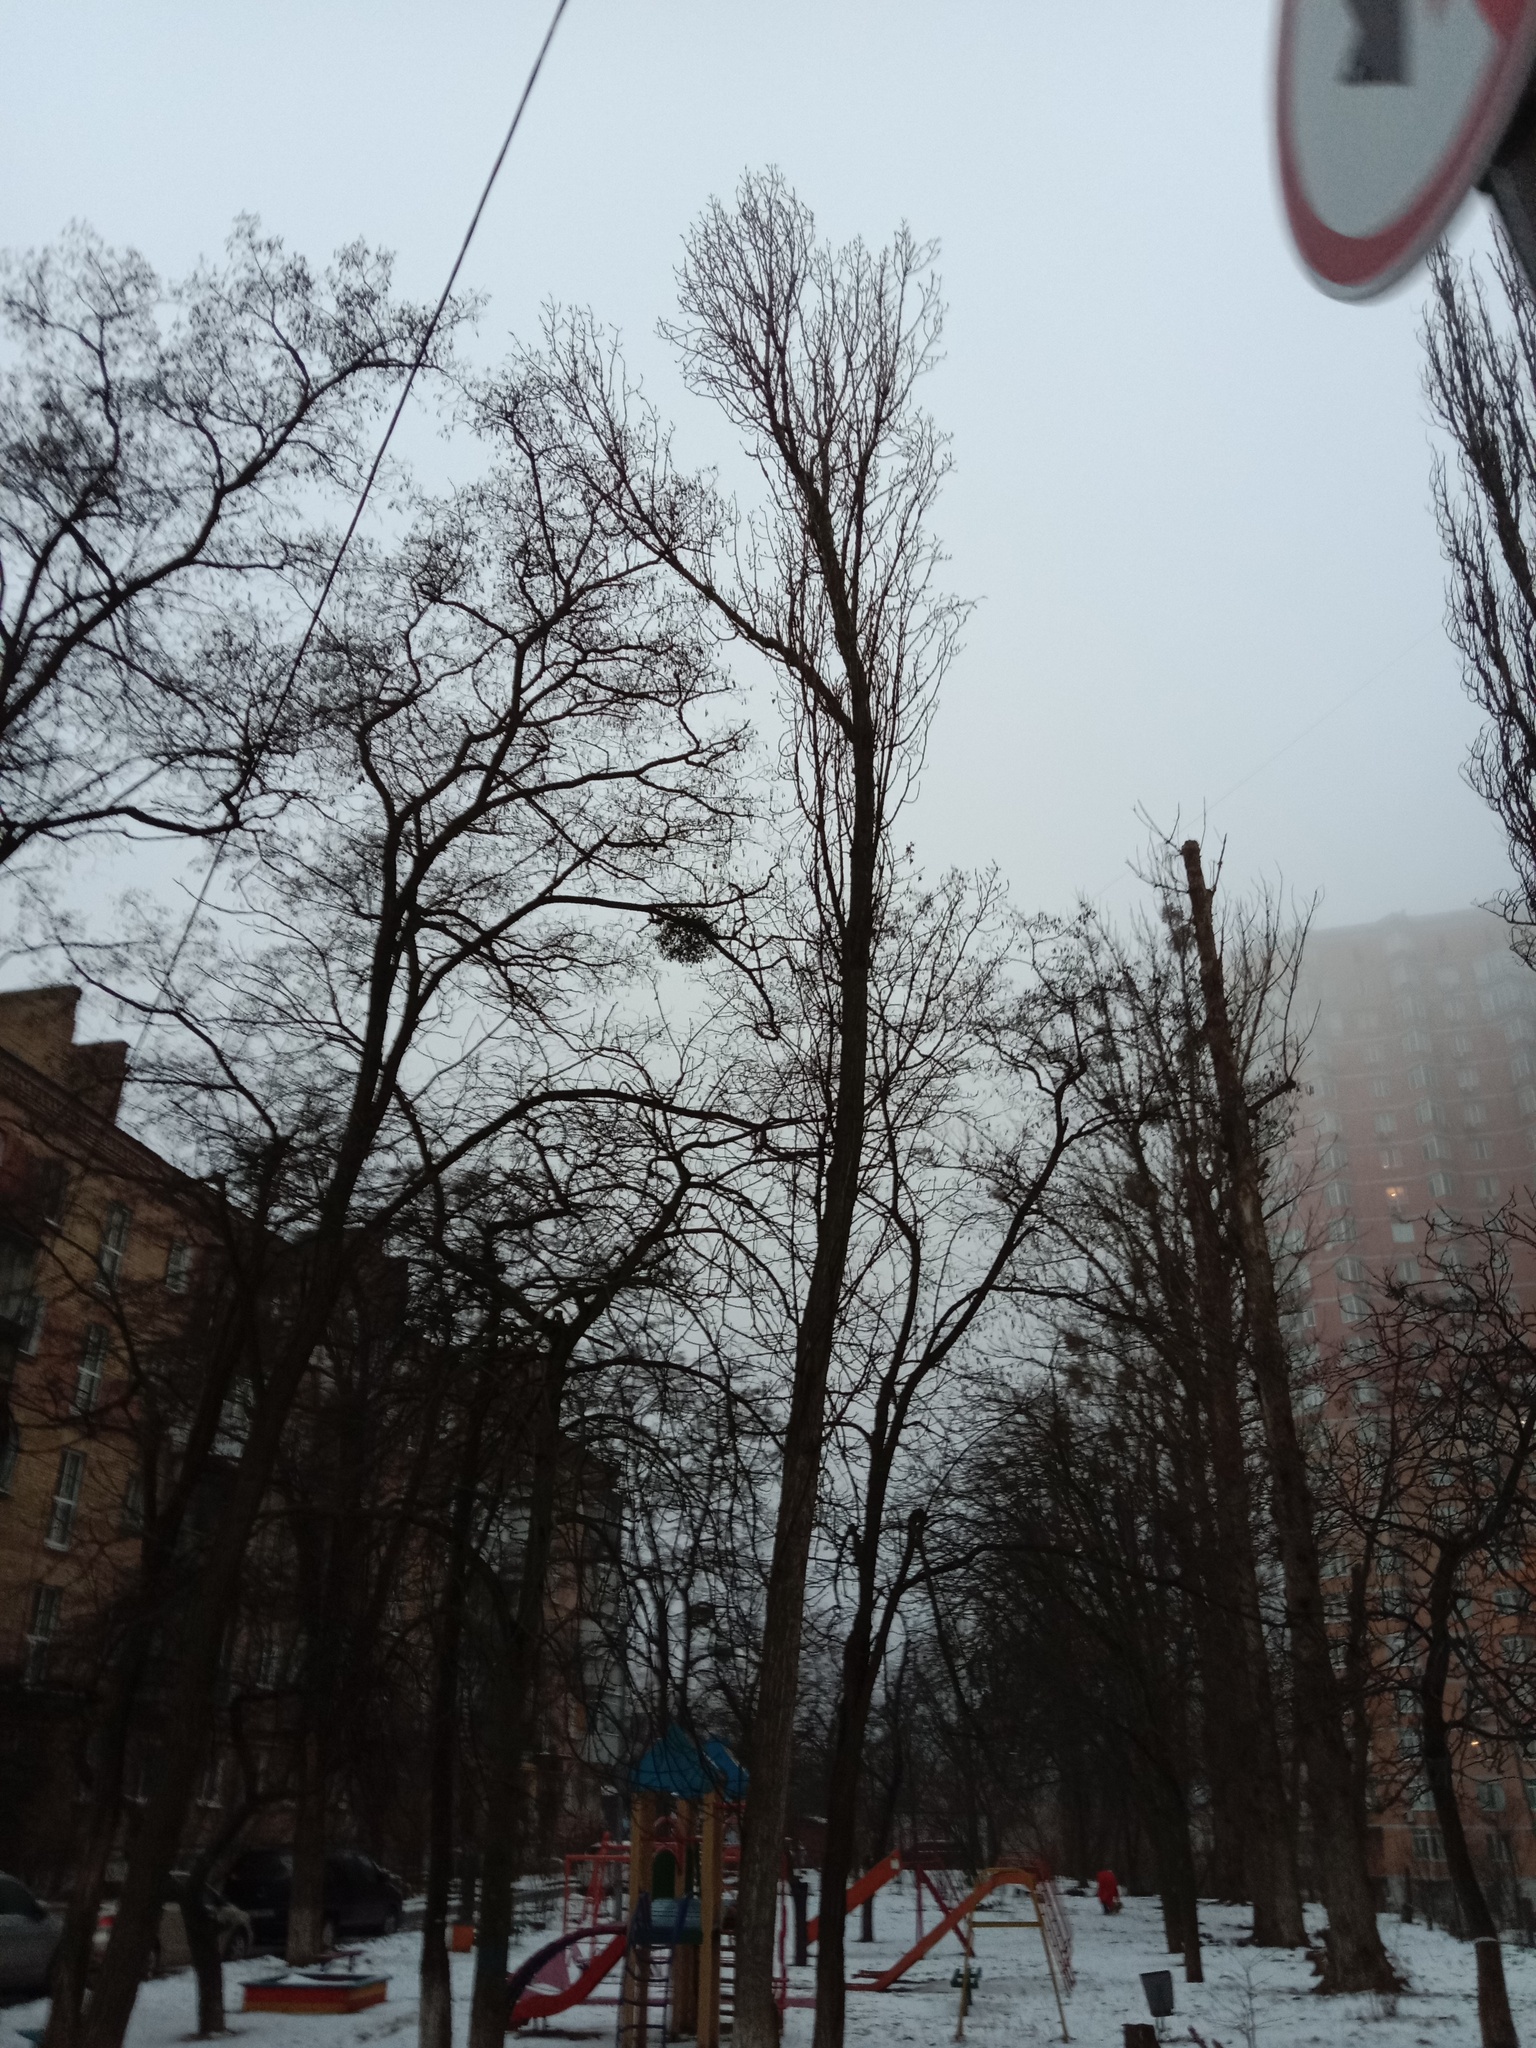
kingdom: Plantae
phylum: Tracheophyta
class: Magnoliopsida
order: Santalales
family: Viscaceae
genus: Viscum
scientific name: Viscum album
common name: Mistletoe
